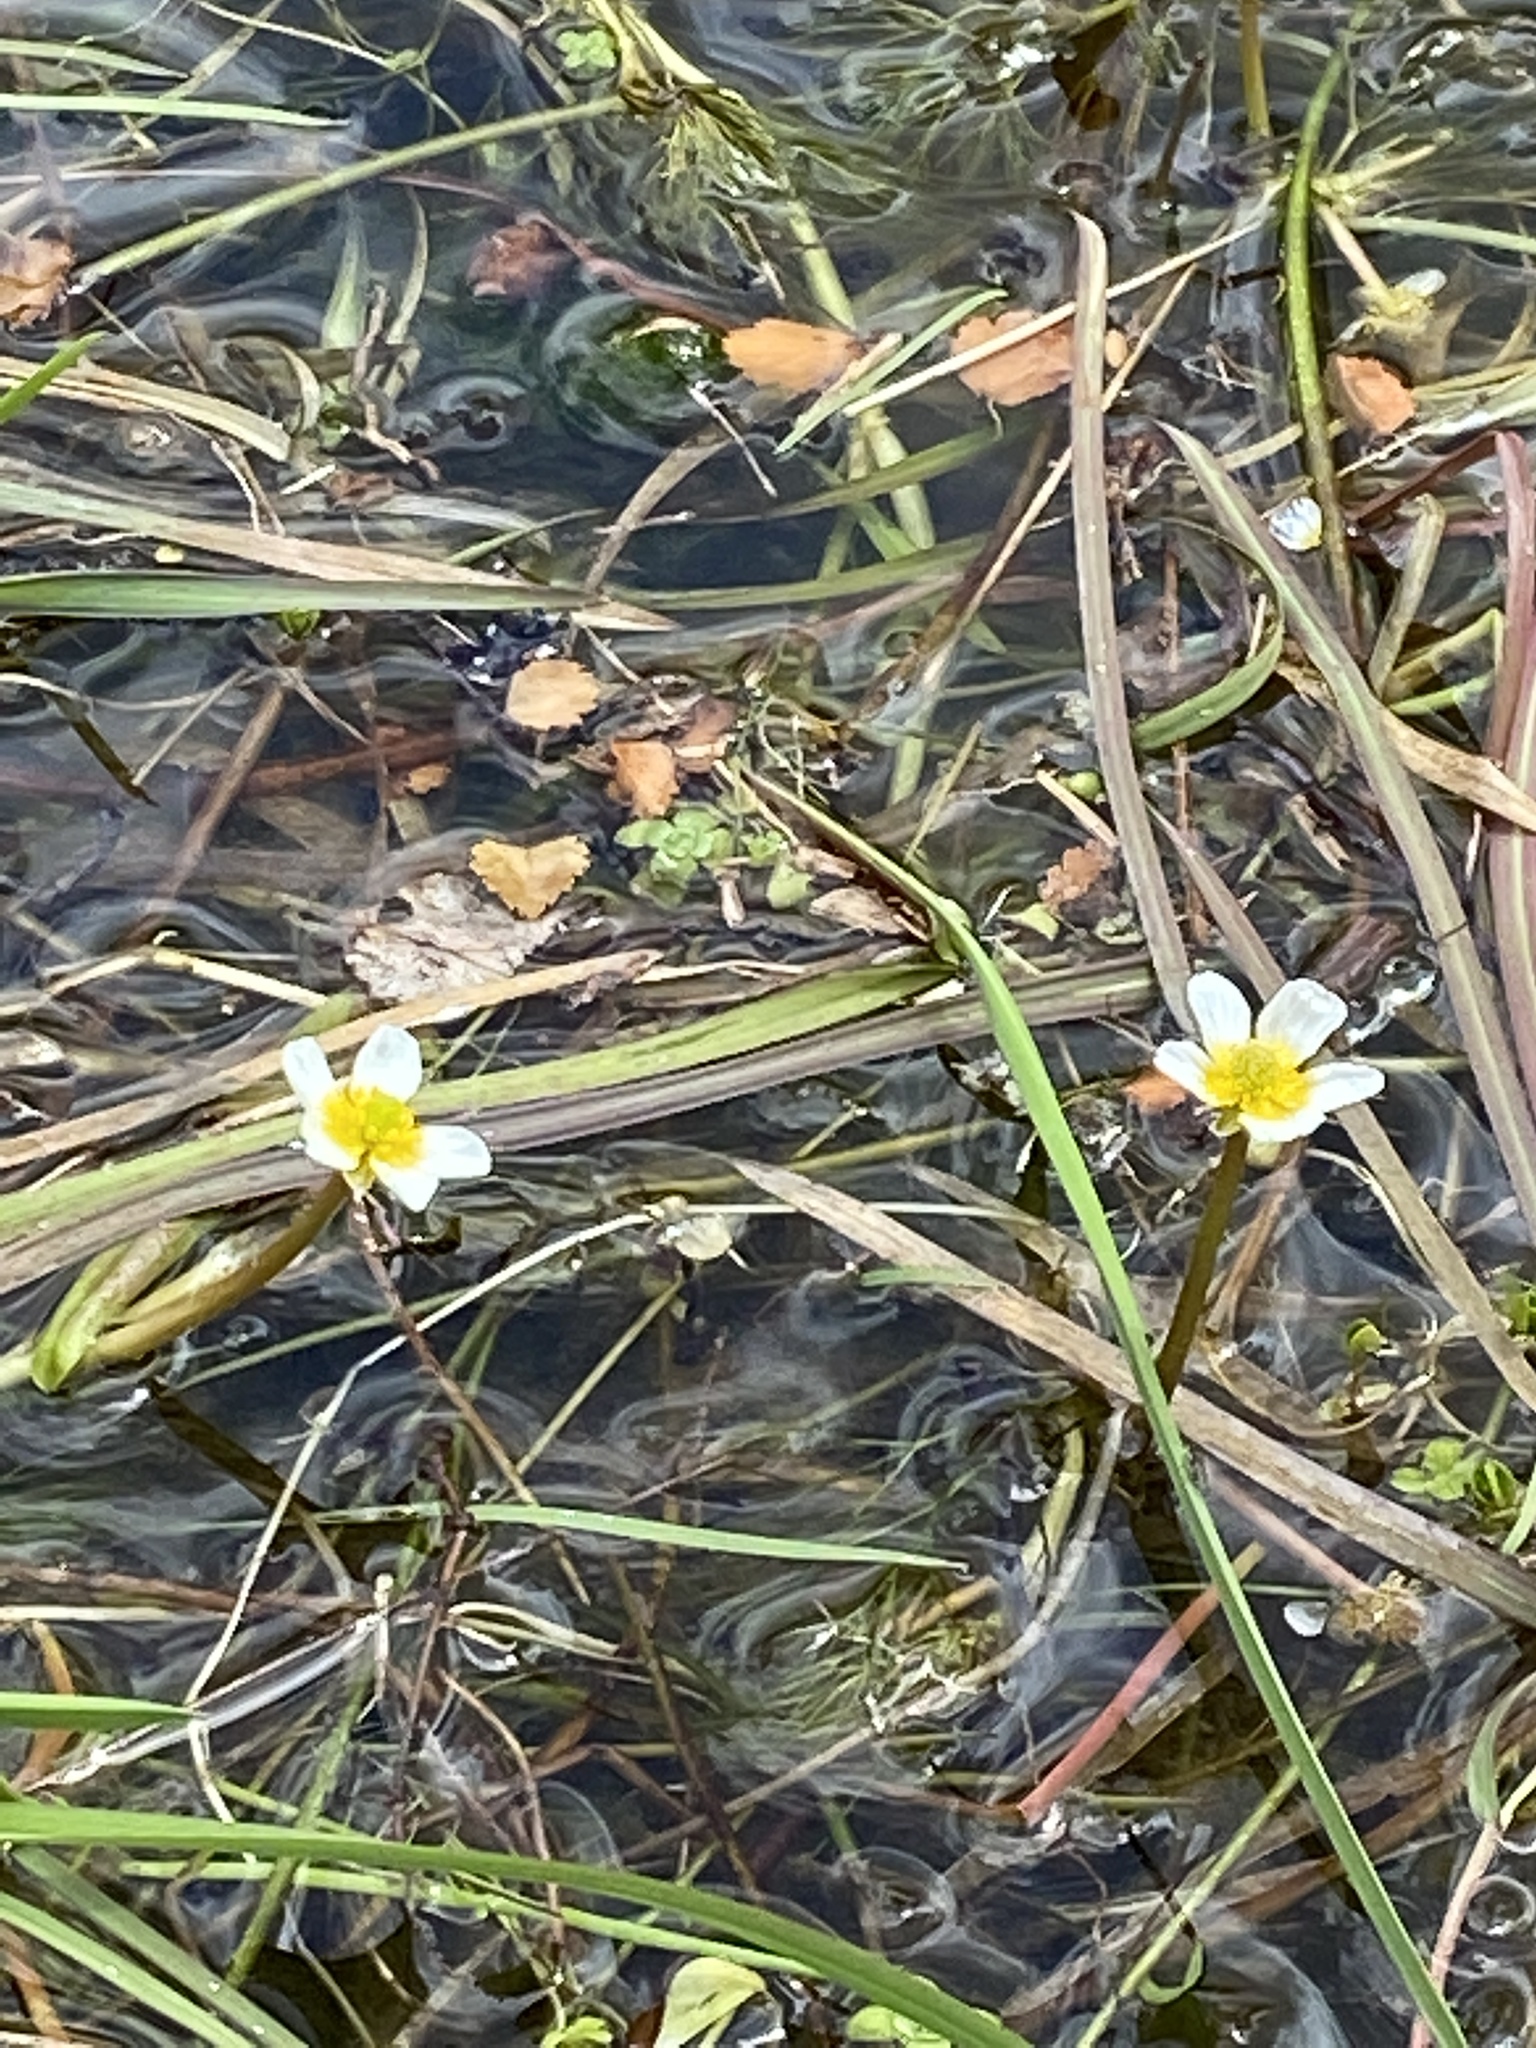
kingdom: Plantae
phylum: Tracheophyta
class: Magnoliopsida
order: Ranunculales
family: Ranunculaceae
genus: Ranunculus
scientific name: Ranunculus trichophyllus
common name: Thread-leaved water-crowfoot
